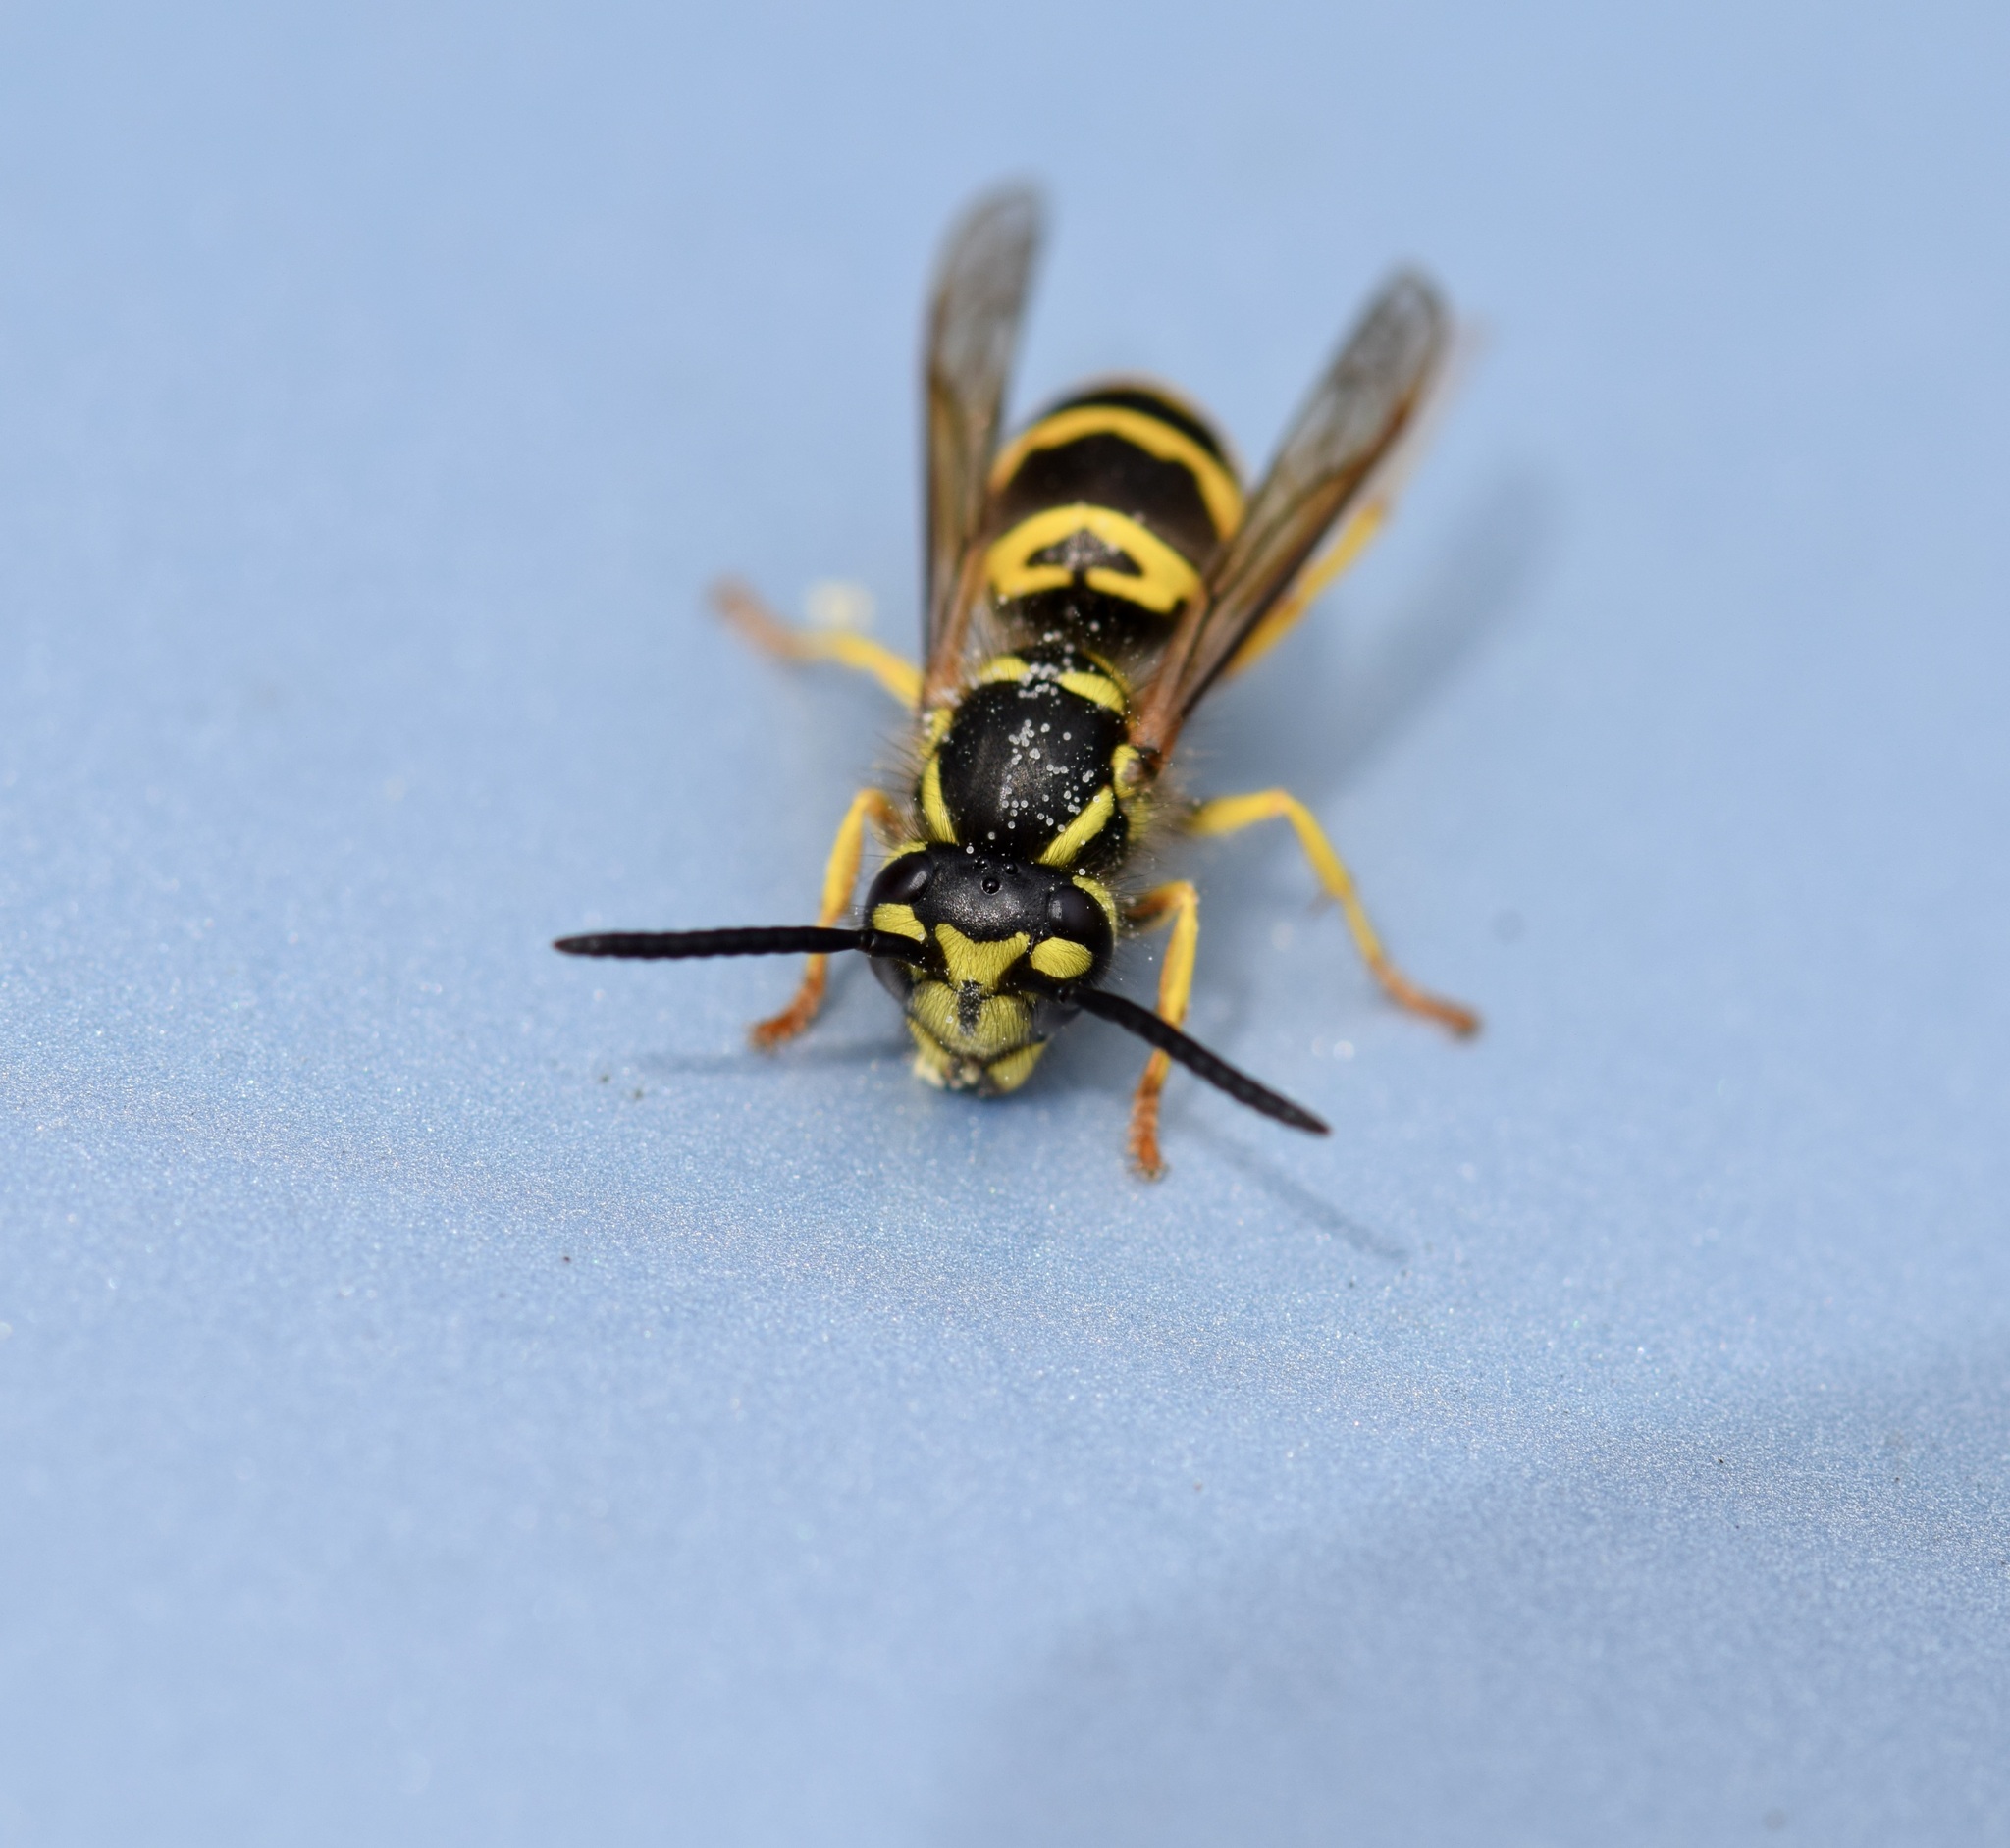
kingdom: Animalia
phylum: Arthropoda
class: Insecta
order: Hymenoptera
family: Vespidae
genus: Vespula
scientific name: Vespula maculifrons
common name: Eastern yellowjacket
